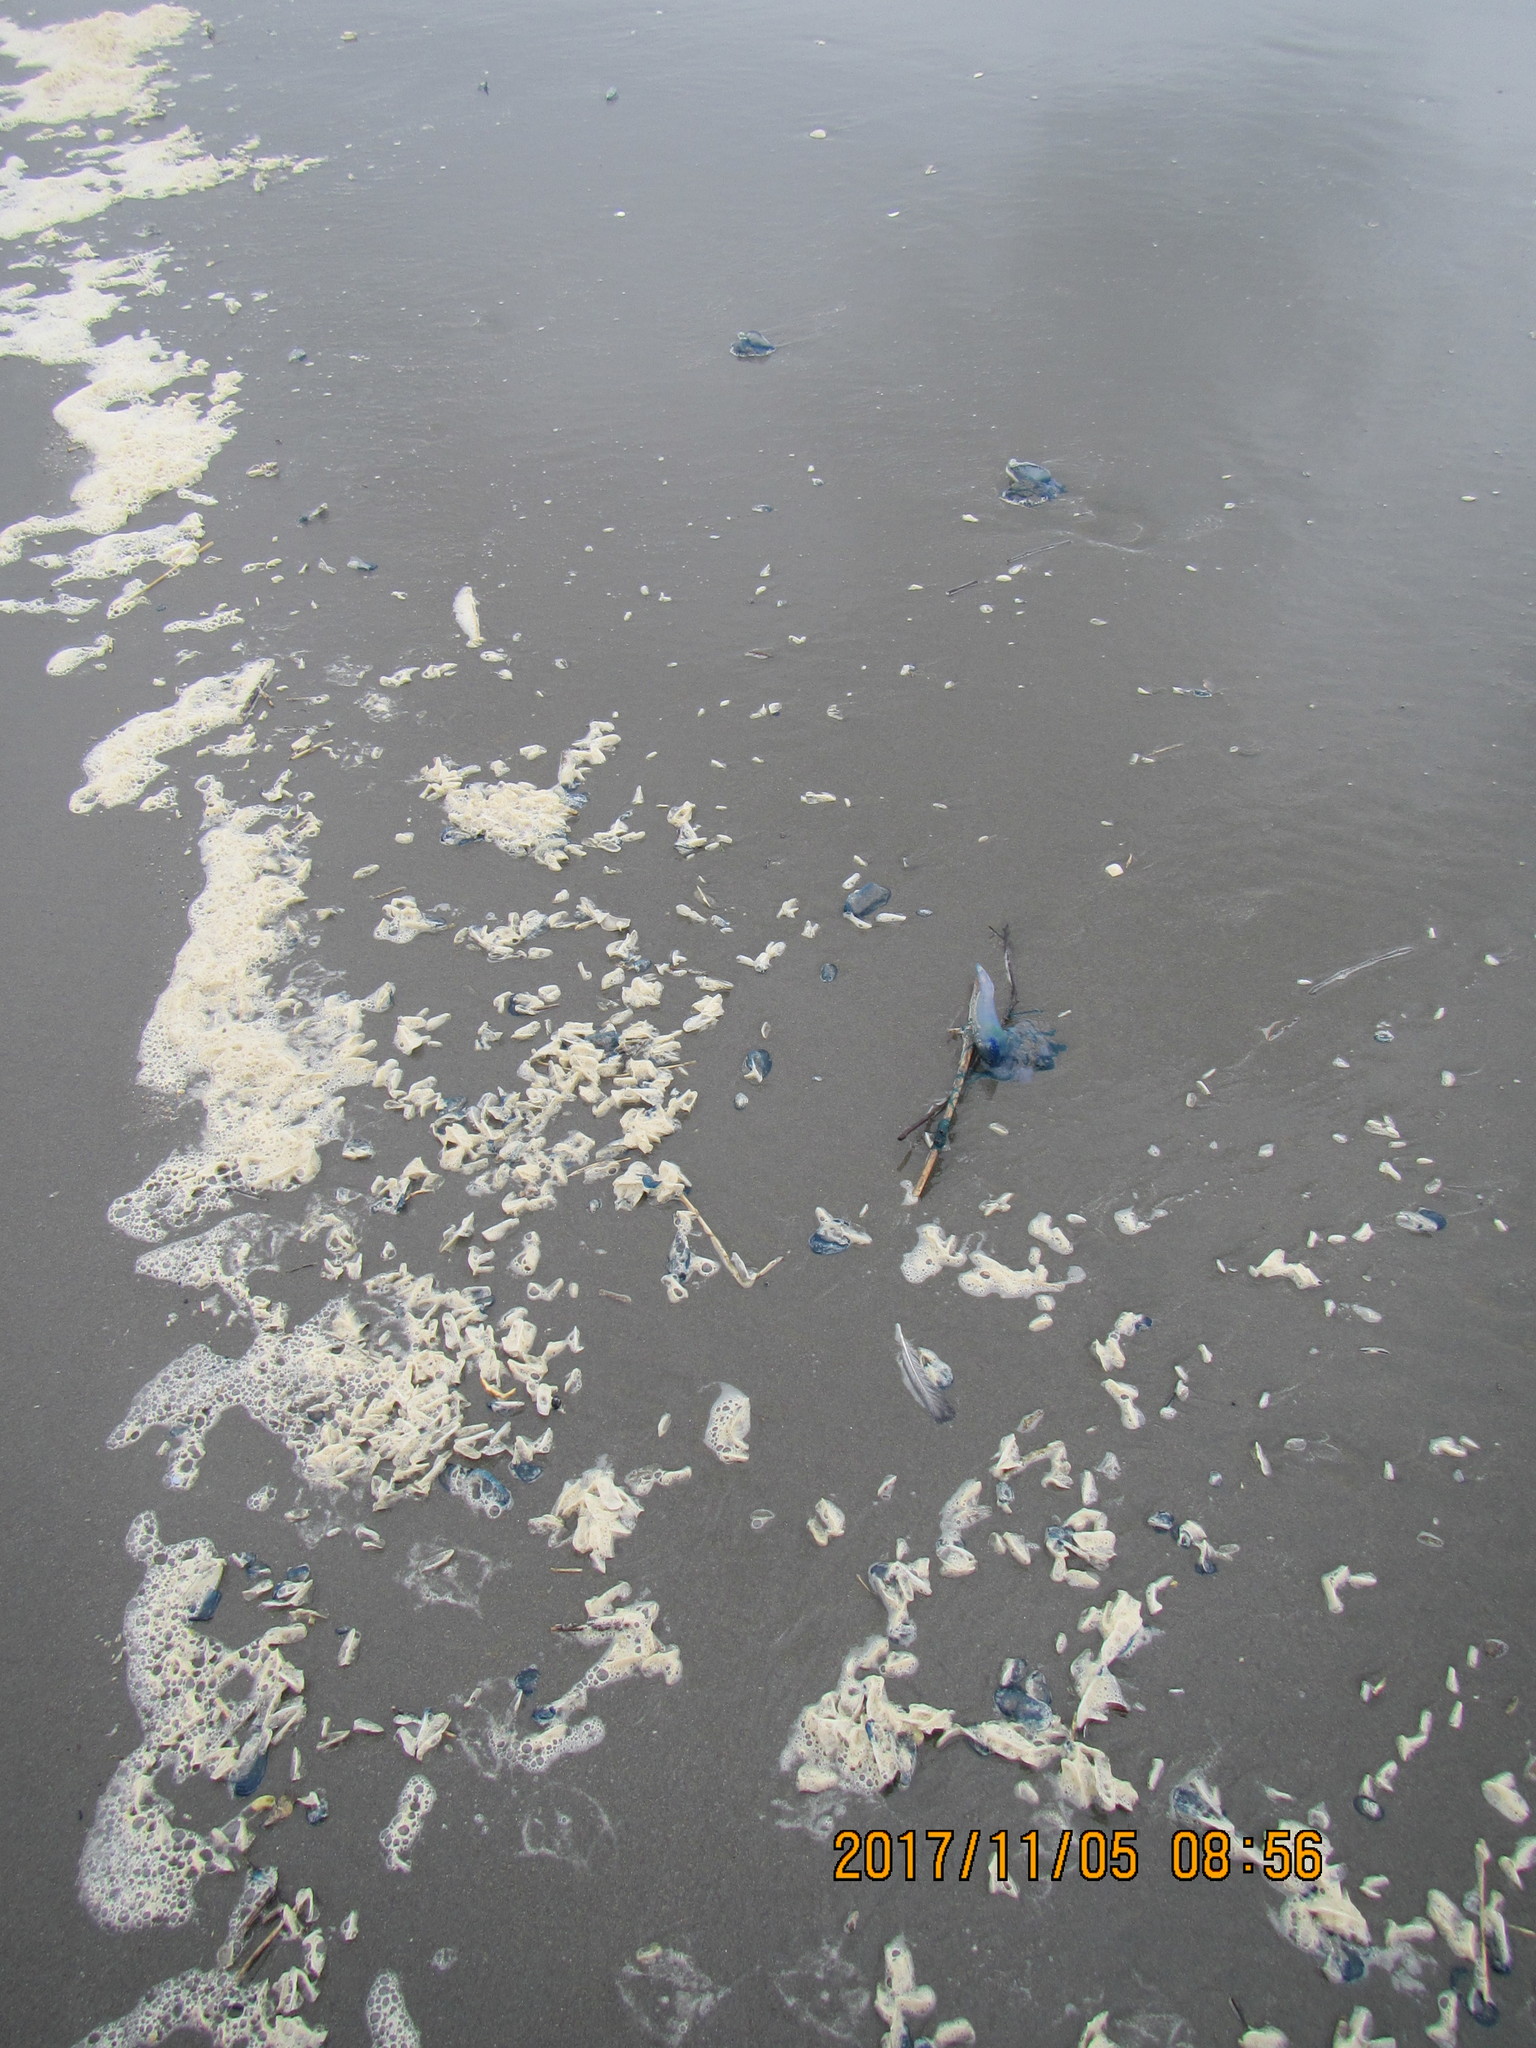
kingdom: Animalia
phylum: Cnidaria
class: Hydrozoa
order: Siphonophorae
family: Physaliidae
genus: Physalia
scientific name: Physalia physalis
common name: Portuguese man-of-war
